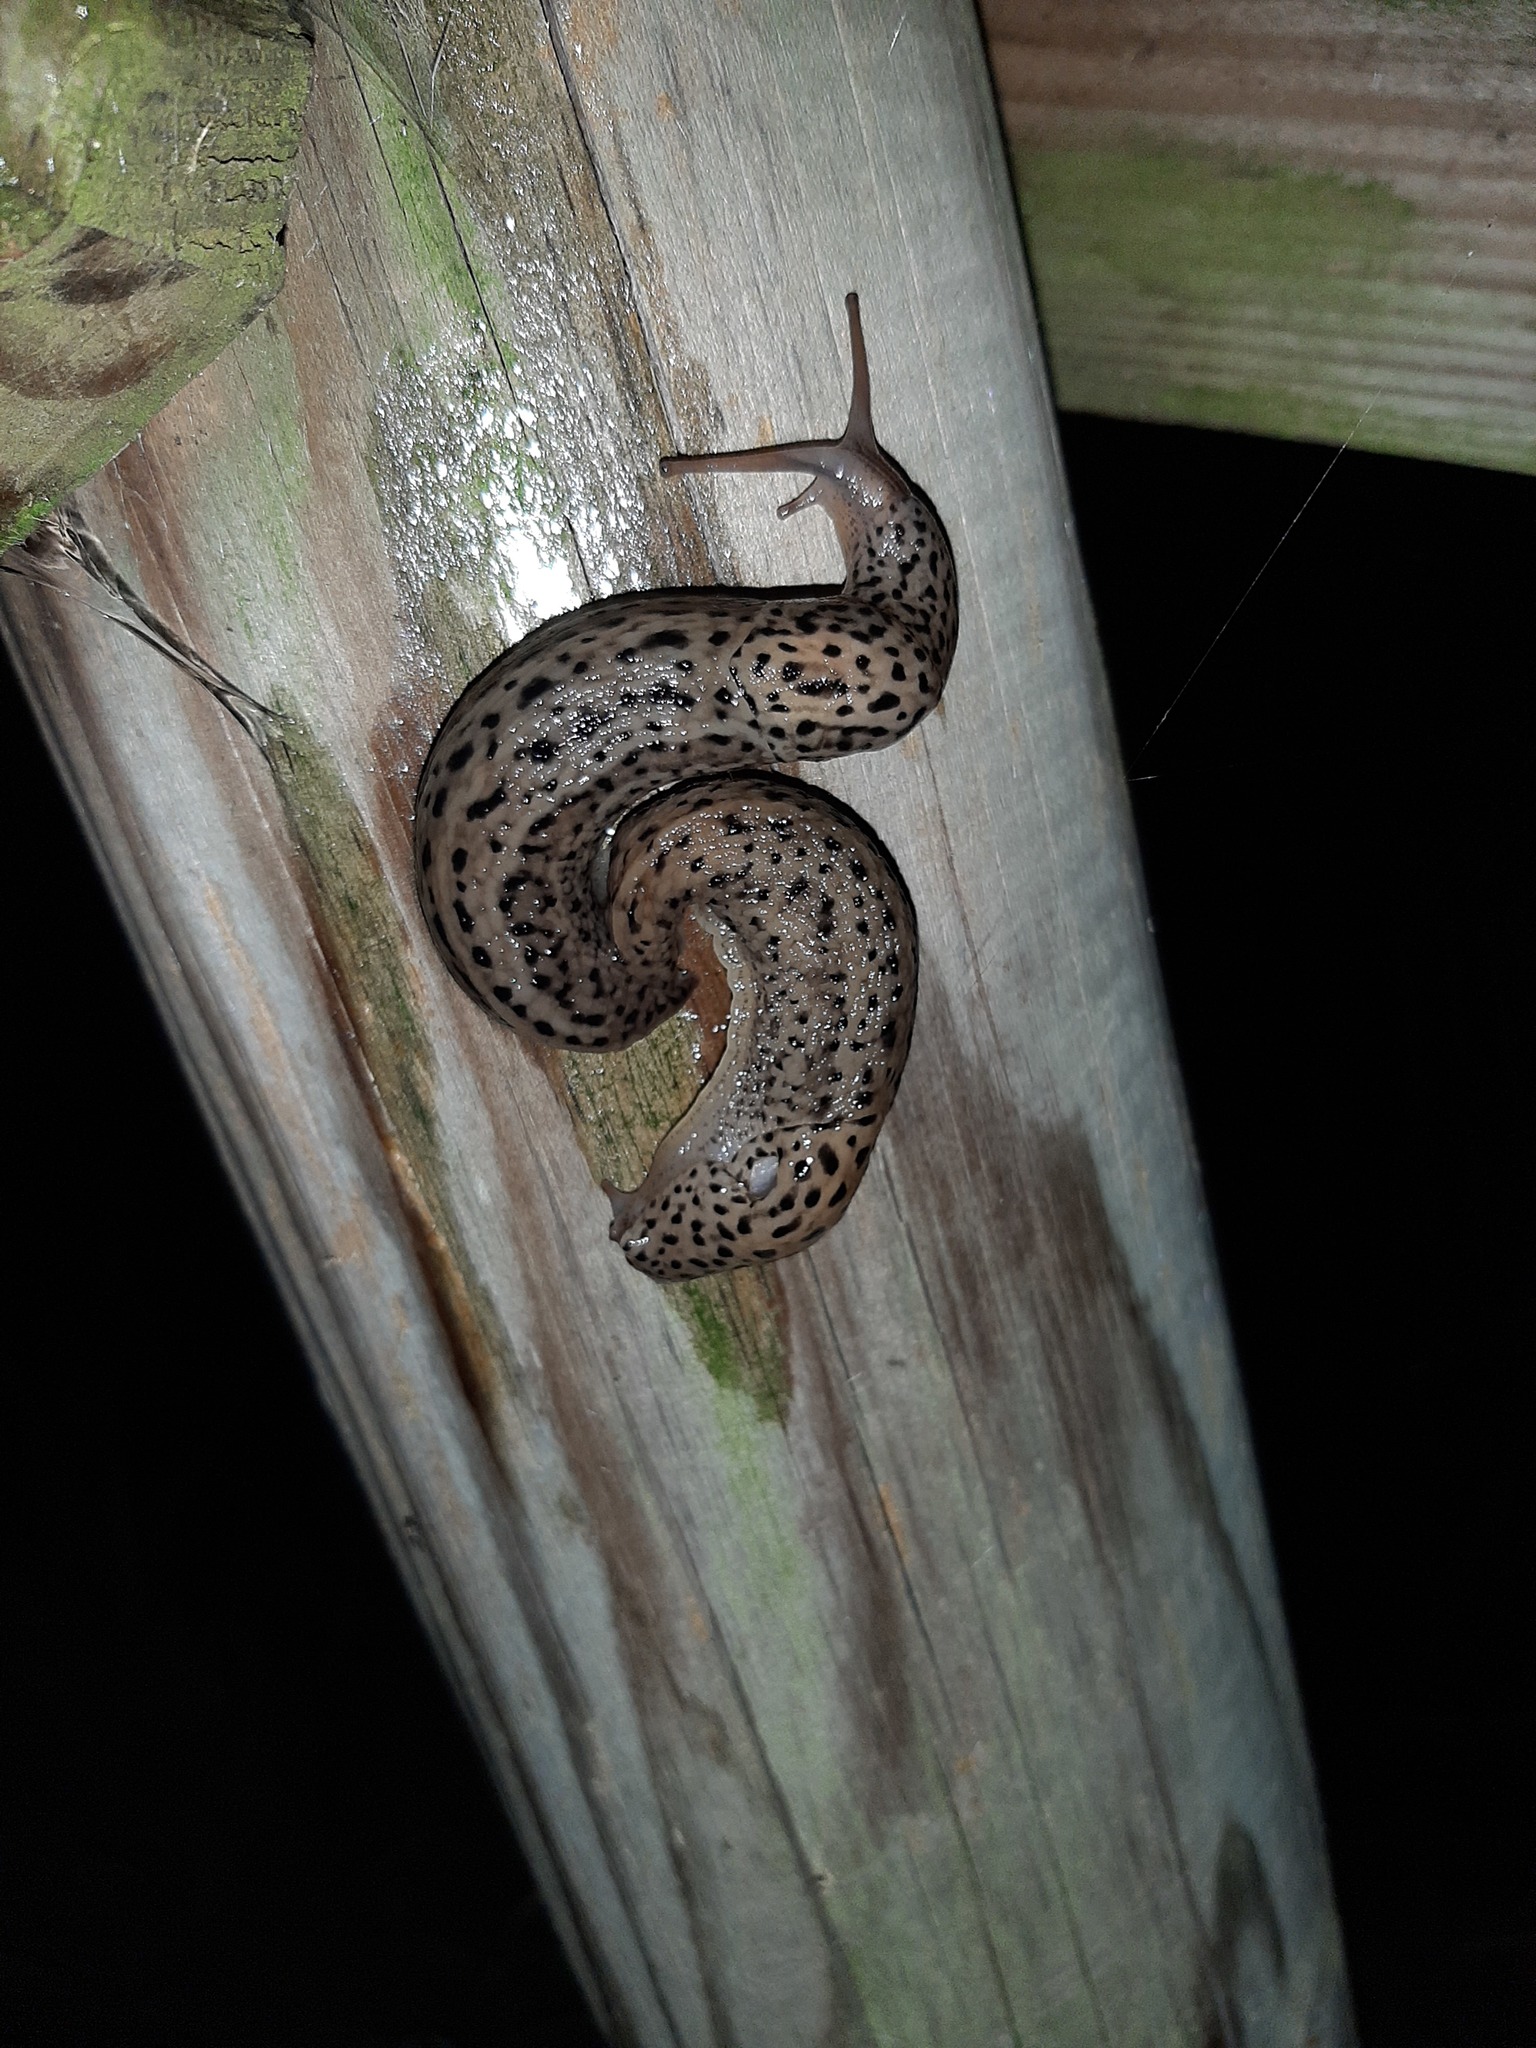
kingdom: Animalia
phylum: Mollusca
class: Gastropoda
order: Stylommatophora
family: Limacidae
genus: Limax
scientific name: Limax maximus
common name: Great grey slug
